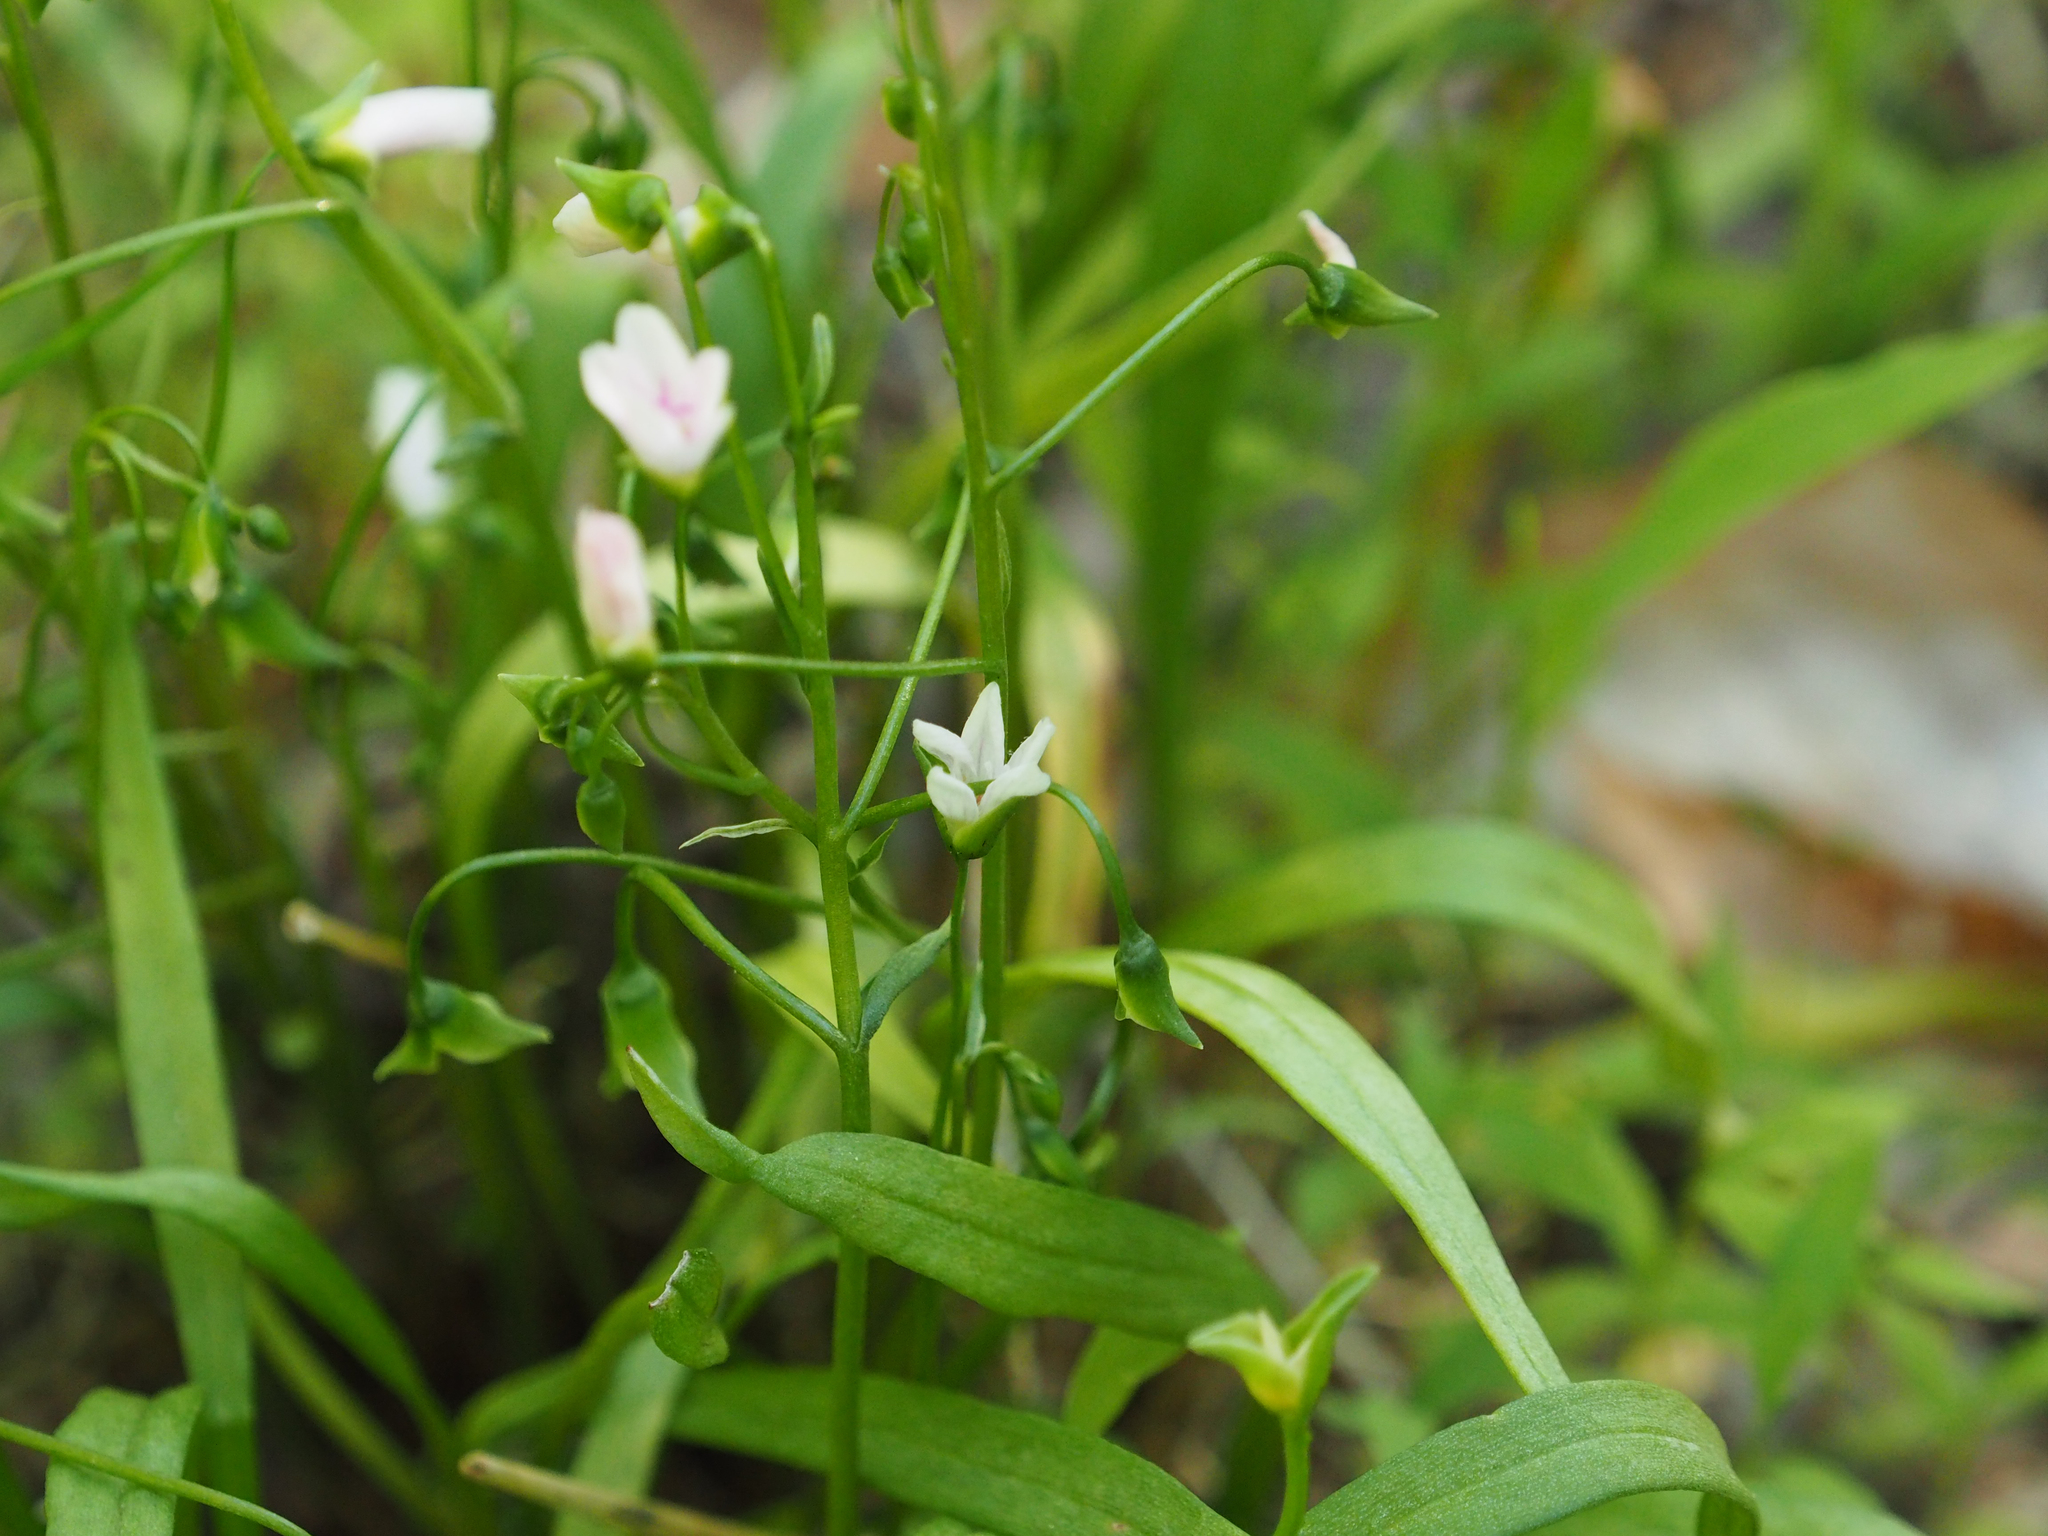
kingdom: Plantae
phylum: Tracheophyta
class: Magnoliopsida
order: Caryophyllales
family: Montiaceae
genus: Claytonia
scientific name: Claytonia virginica
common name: Virginia springbeauty
